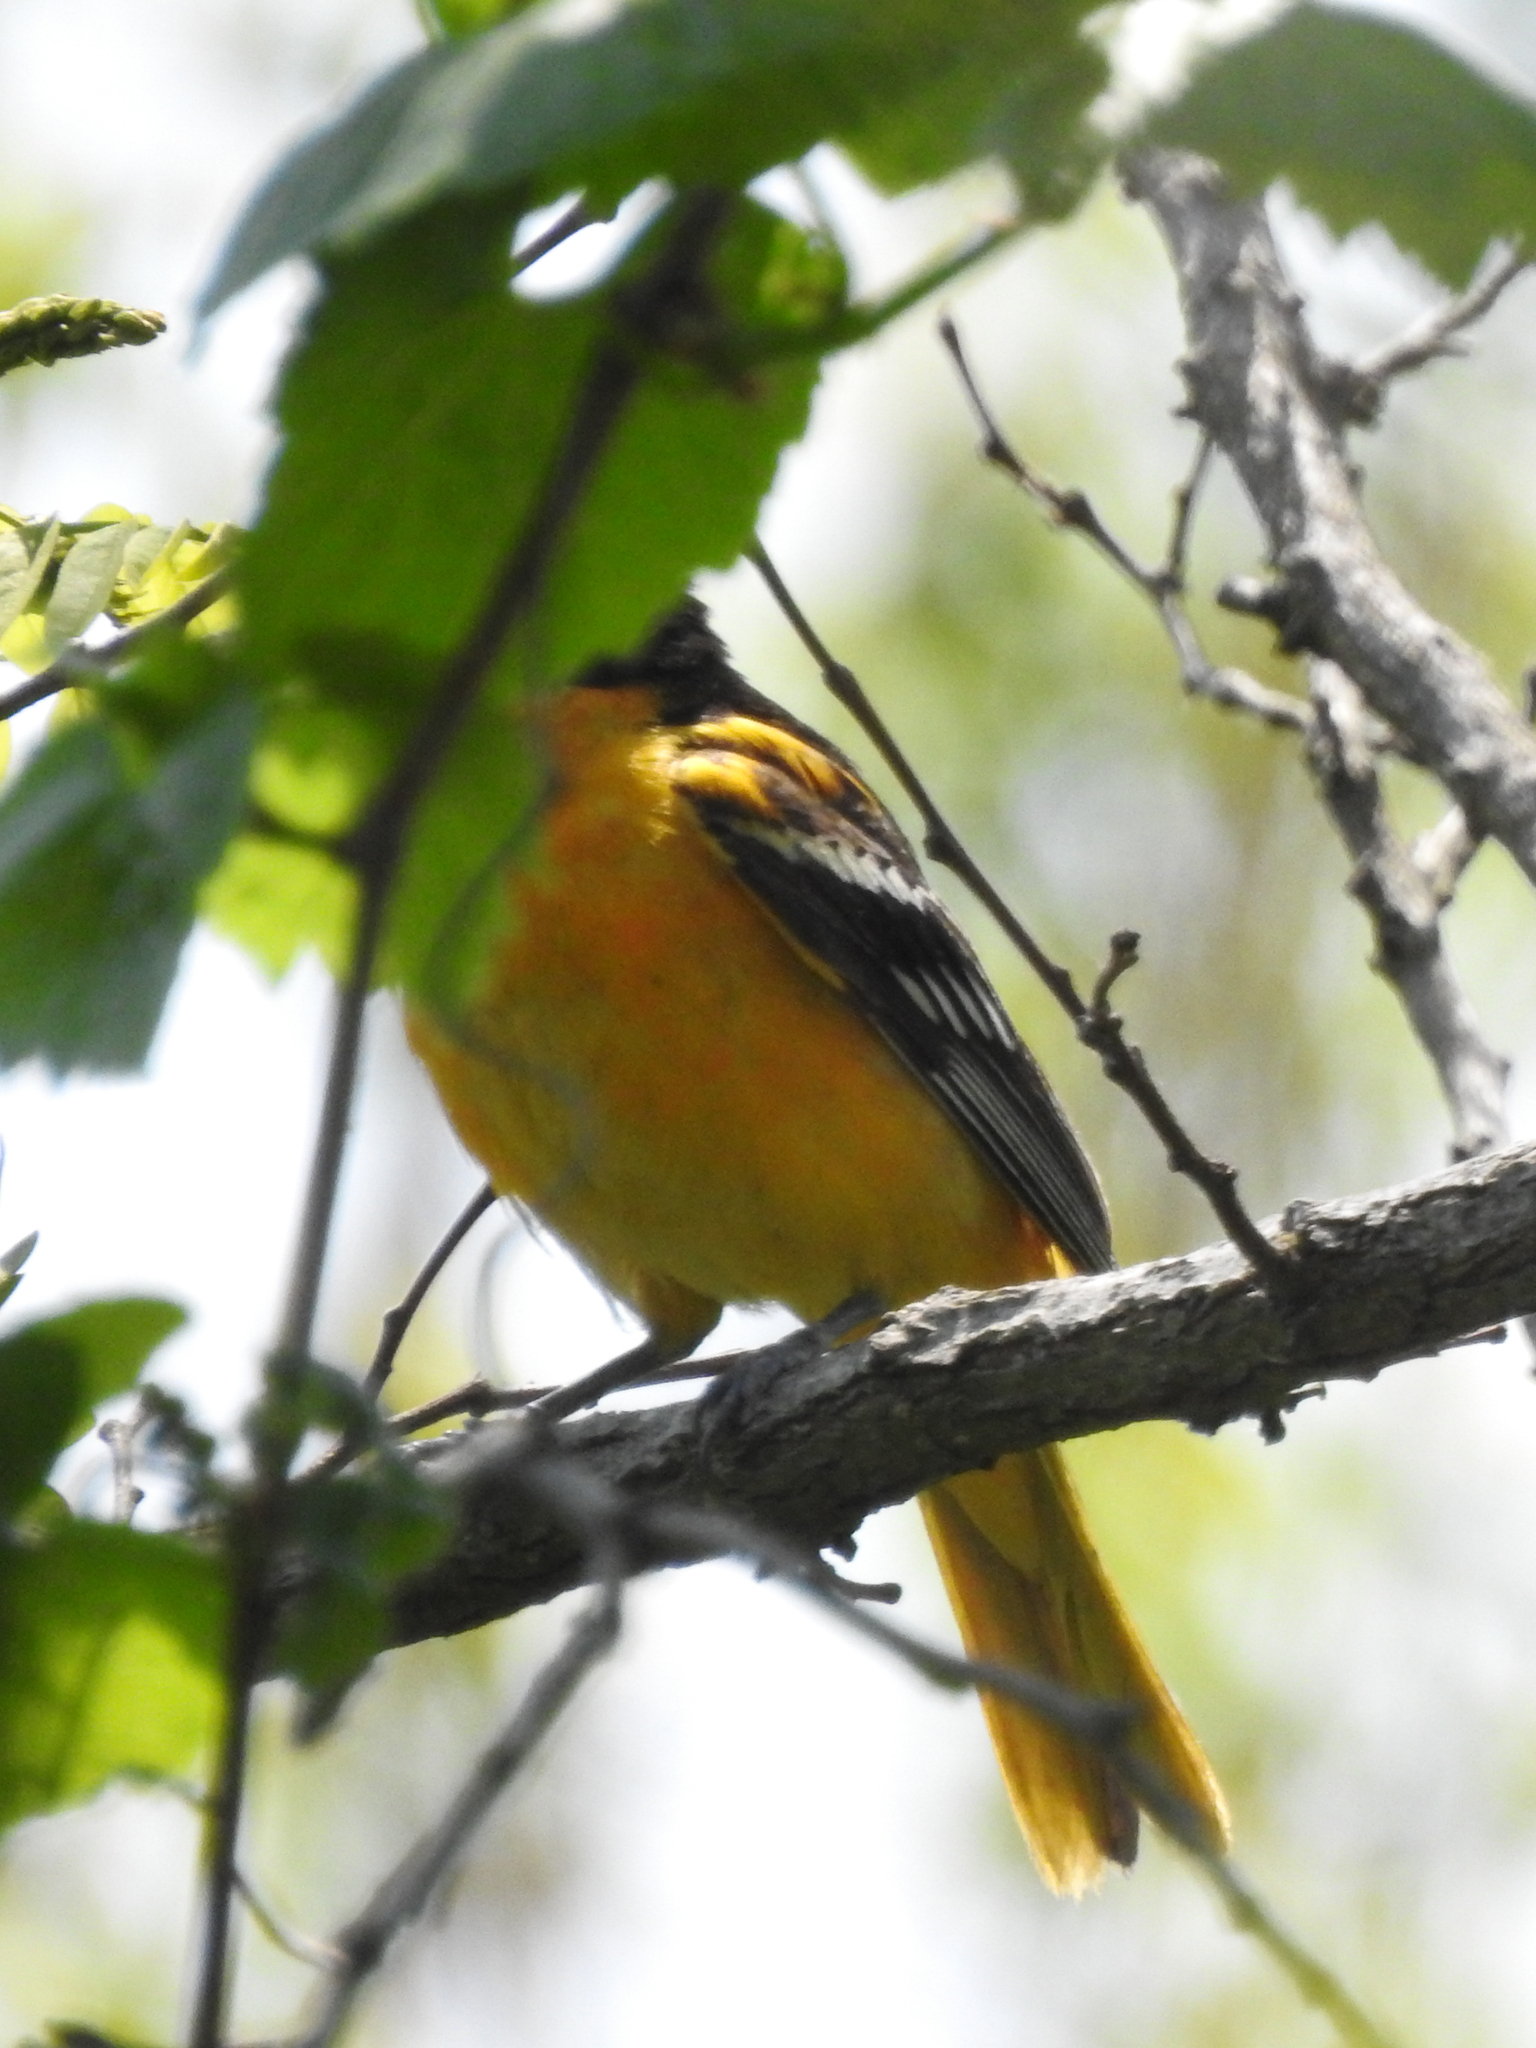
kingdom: Animalia
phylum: Chordata
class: Aves
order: Passeriformes
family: Icteridae
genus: Icterus
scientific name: Icterus galbula
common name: Baltimore oriole
